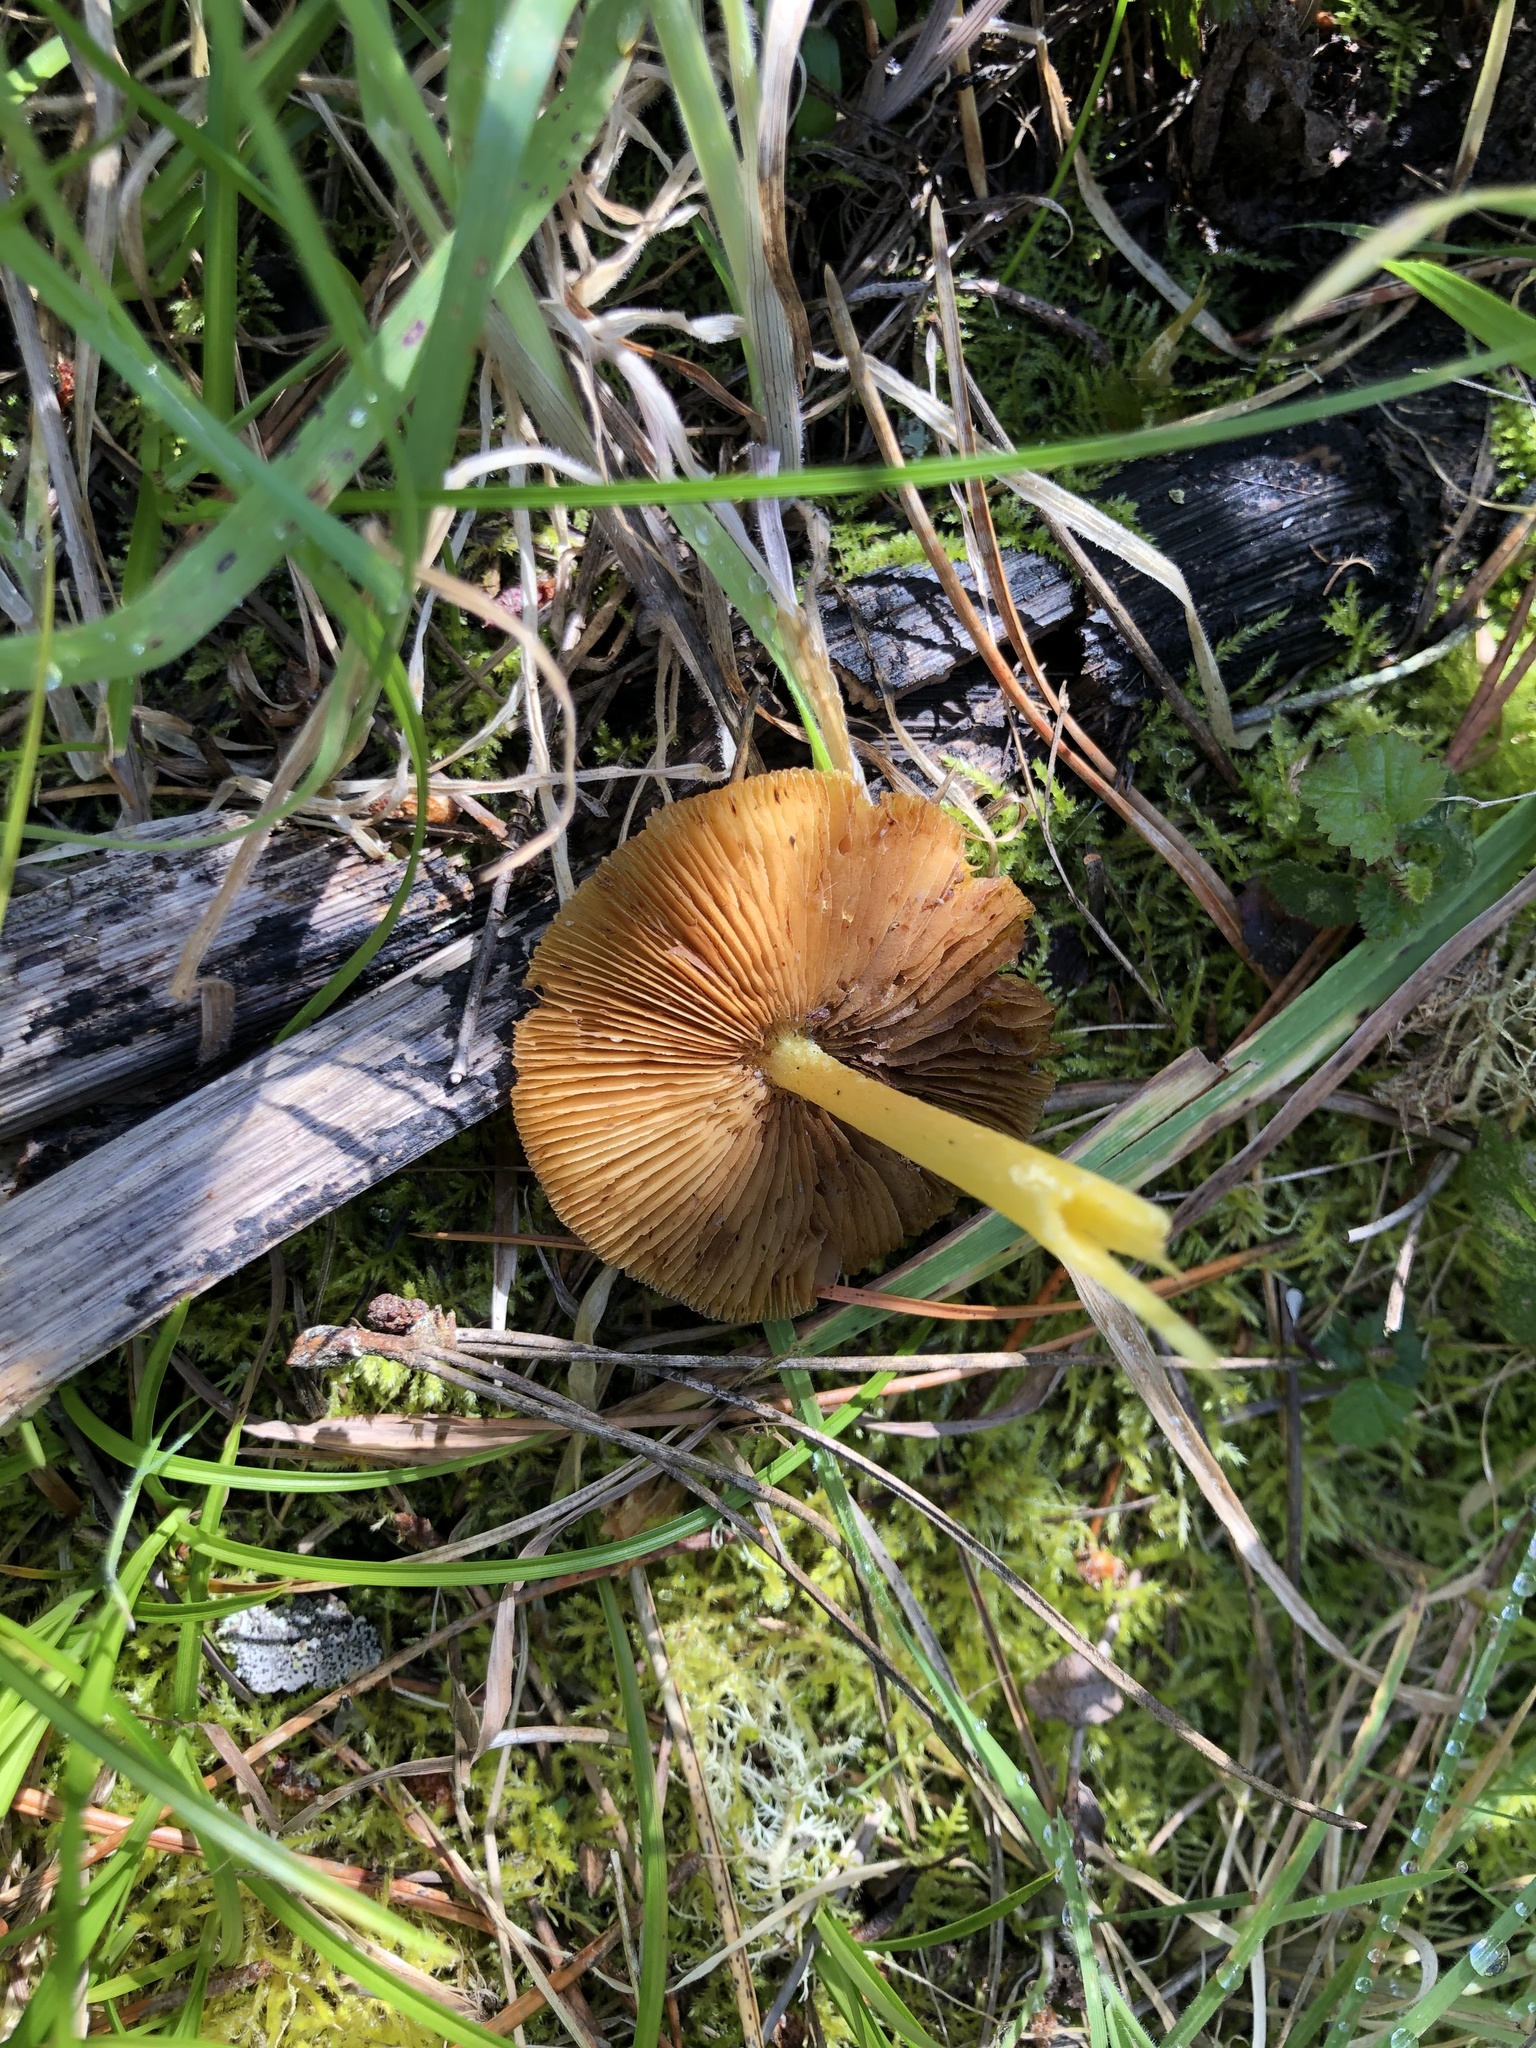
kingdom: Fungi
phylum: Basidiomycota
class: Agaricomycetes
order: Agaricales
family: Bolbitiaceae
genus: Bolbitius
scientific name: Bolbitius titubans
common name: Yellow fieldcap
